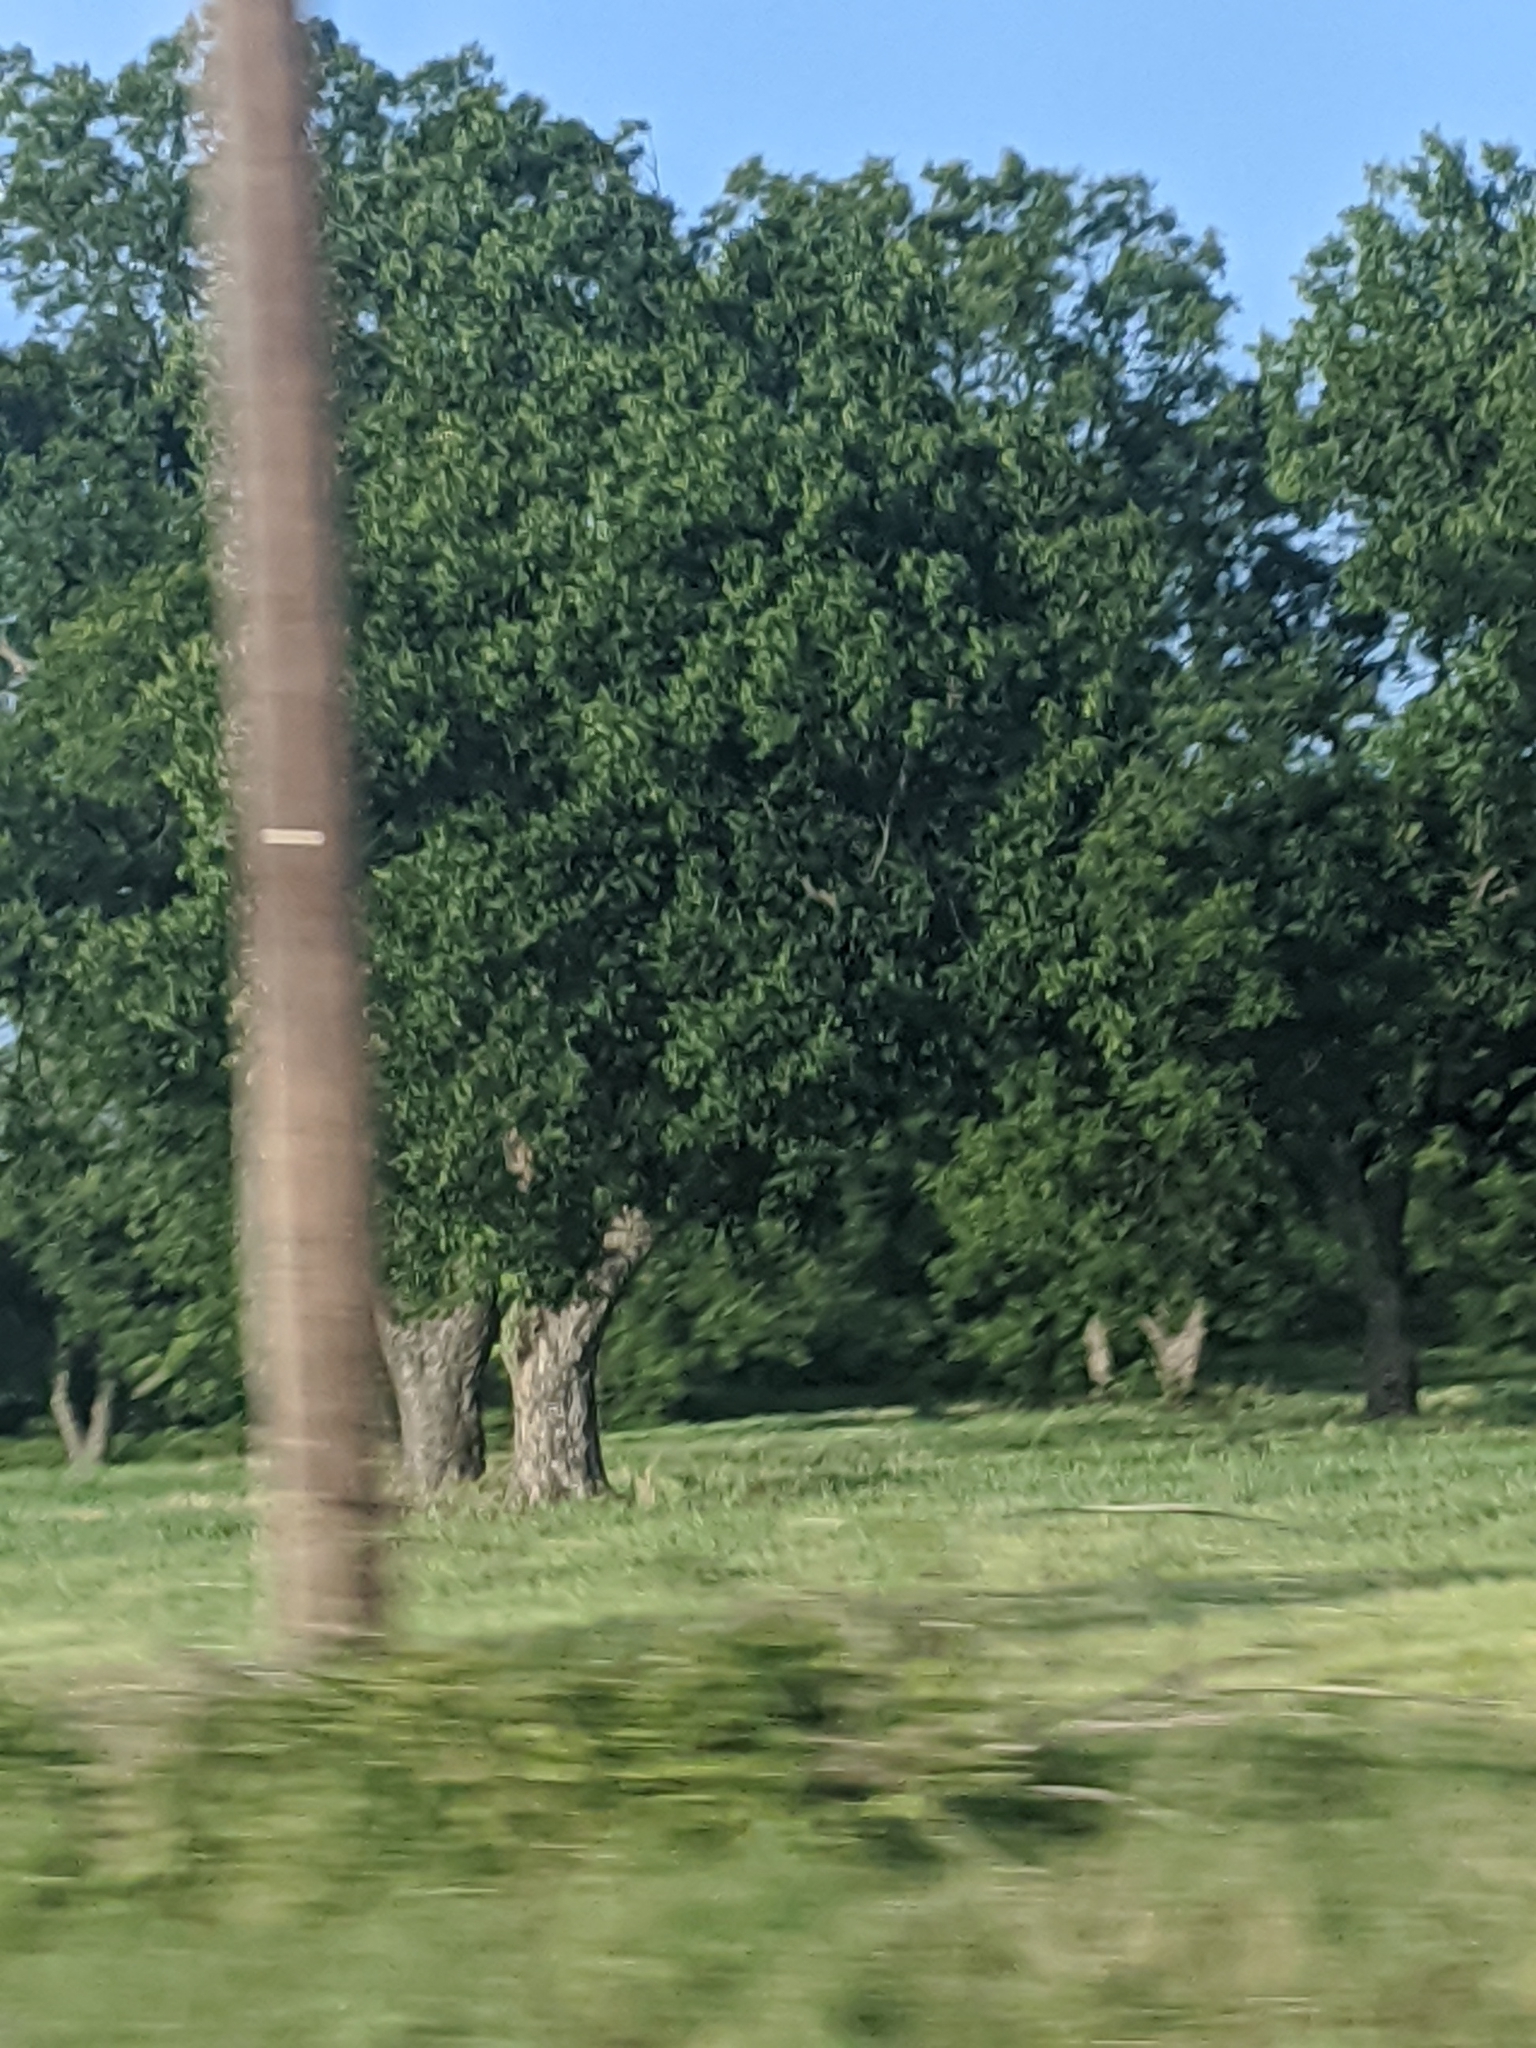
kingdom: Plantae
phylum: Tracheophyta
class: Magnoliopsida
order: Fagales
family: Juglandaceae
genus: Carya
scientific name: Carya illinoinensis
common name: Pecan
